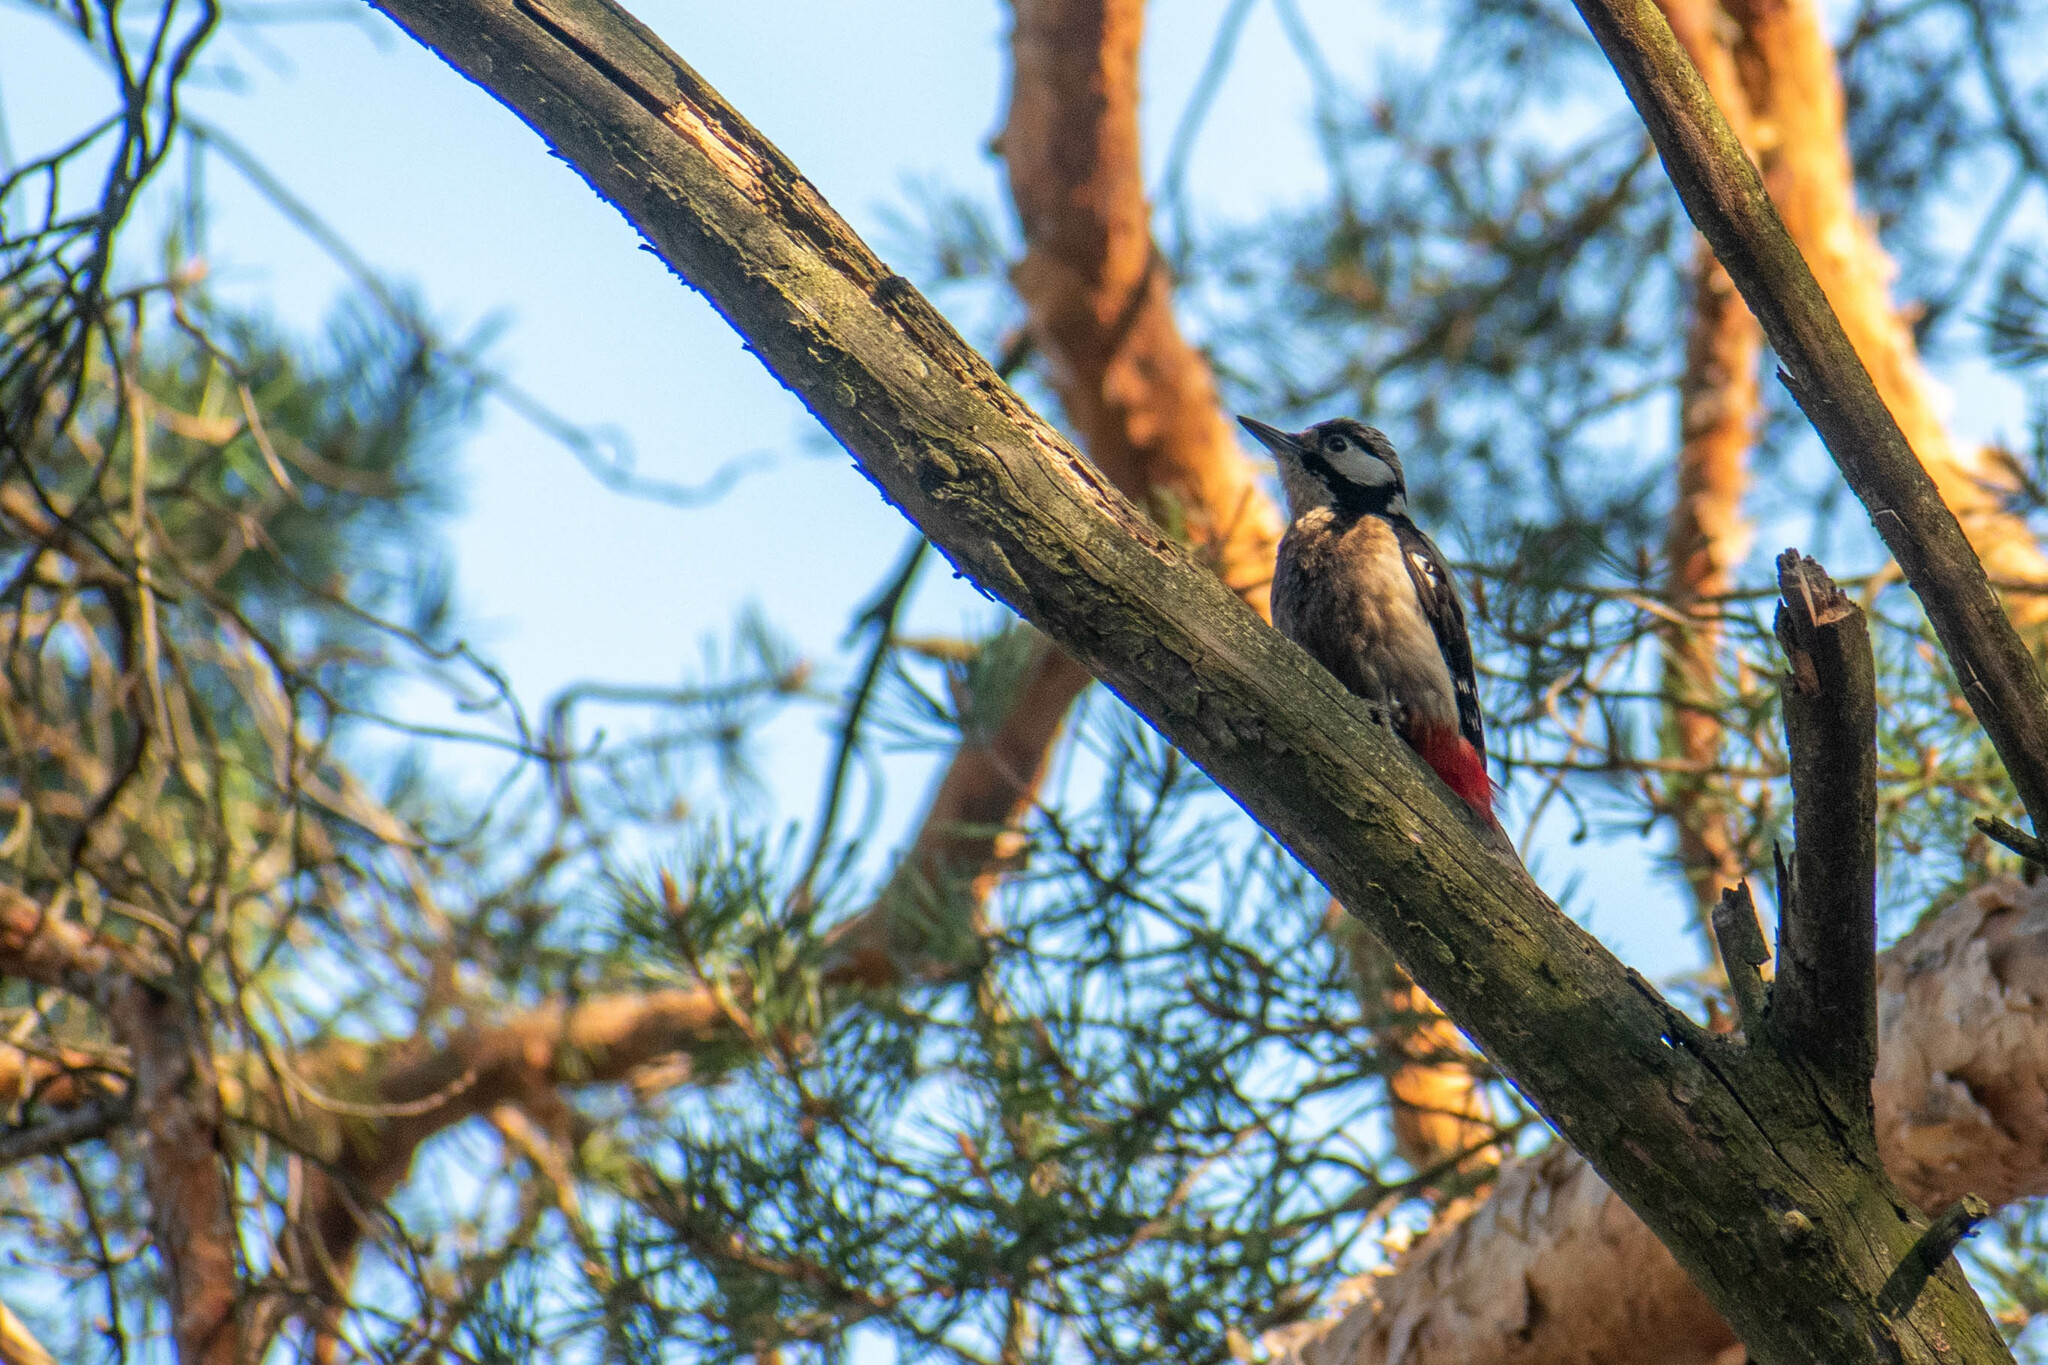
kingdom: Animalia
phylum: Chordata
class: Aves
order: Piciformes
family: Picidae
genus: Dendrocopos
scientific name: Dendrocopos major
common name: Great spotted woodpecker
